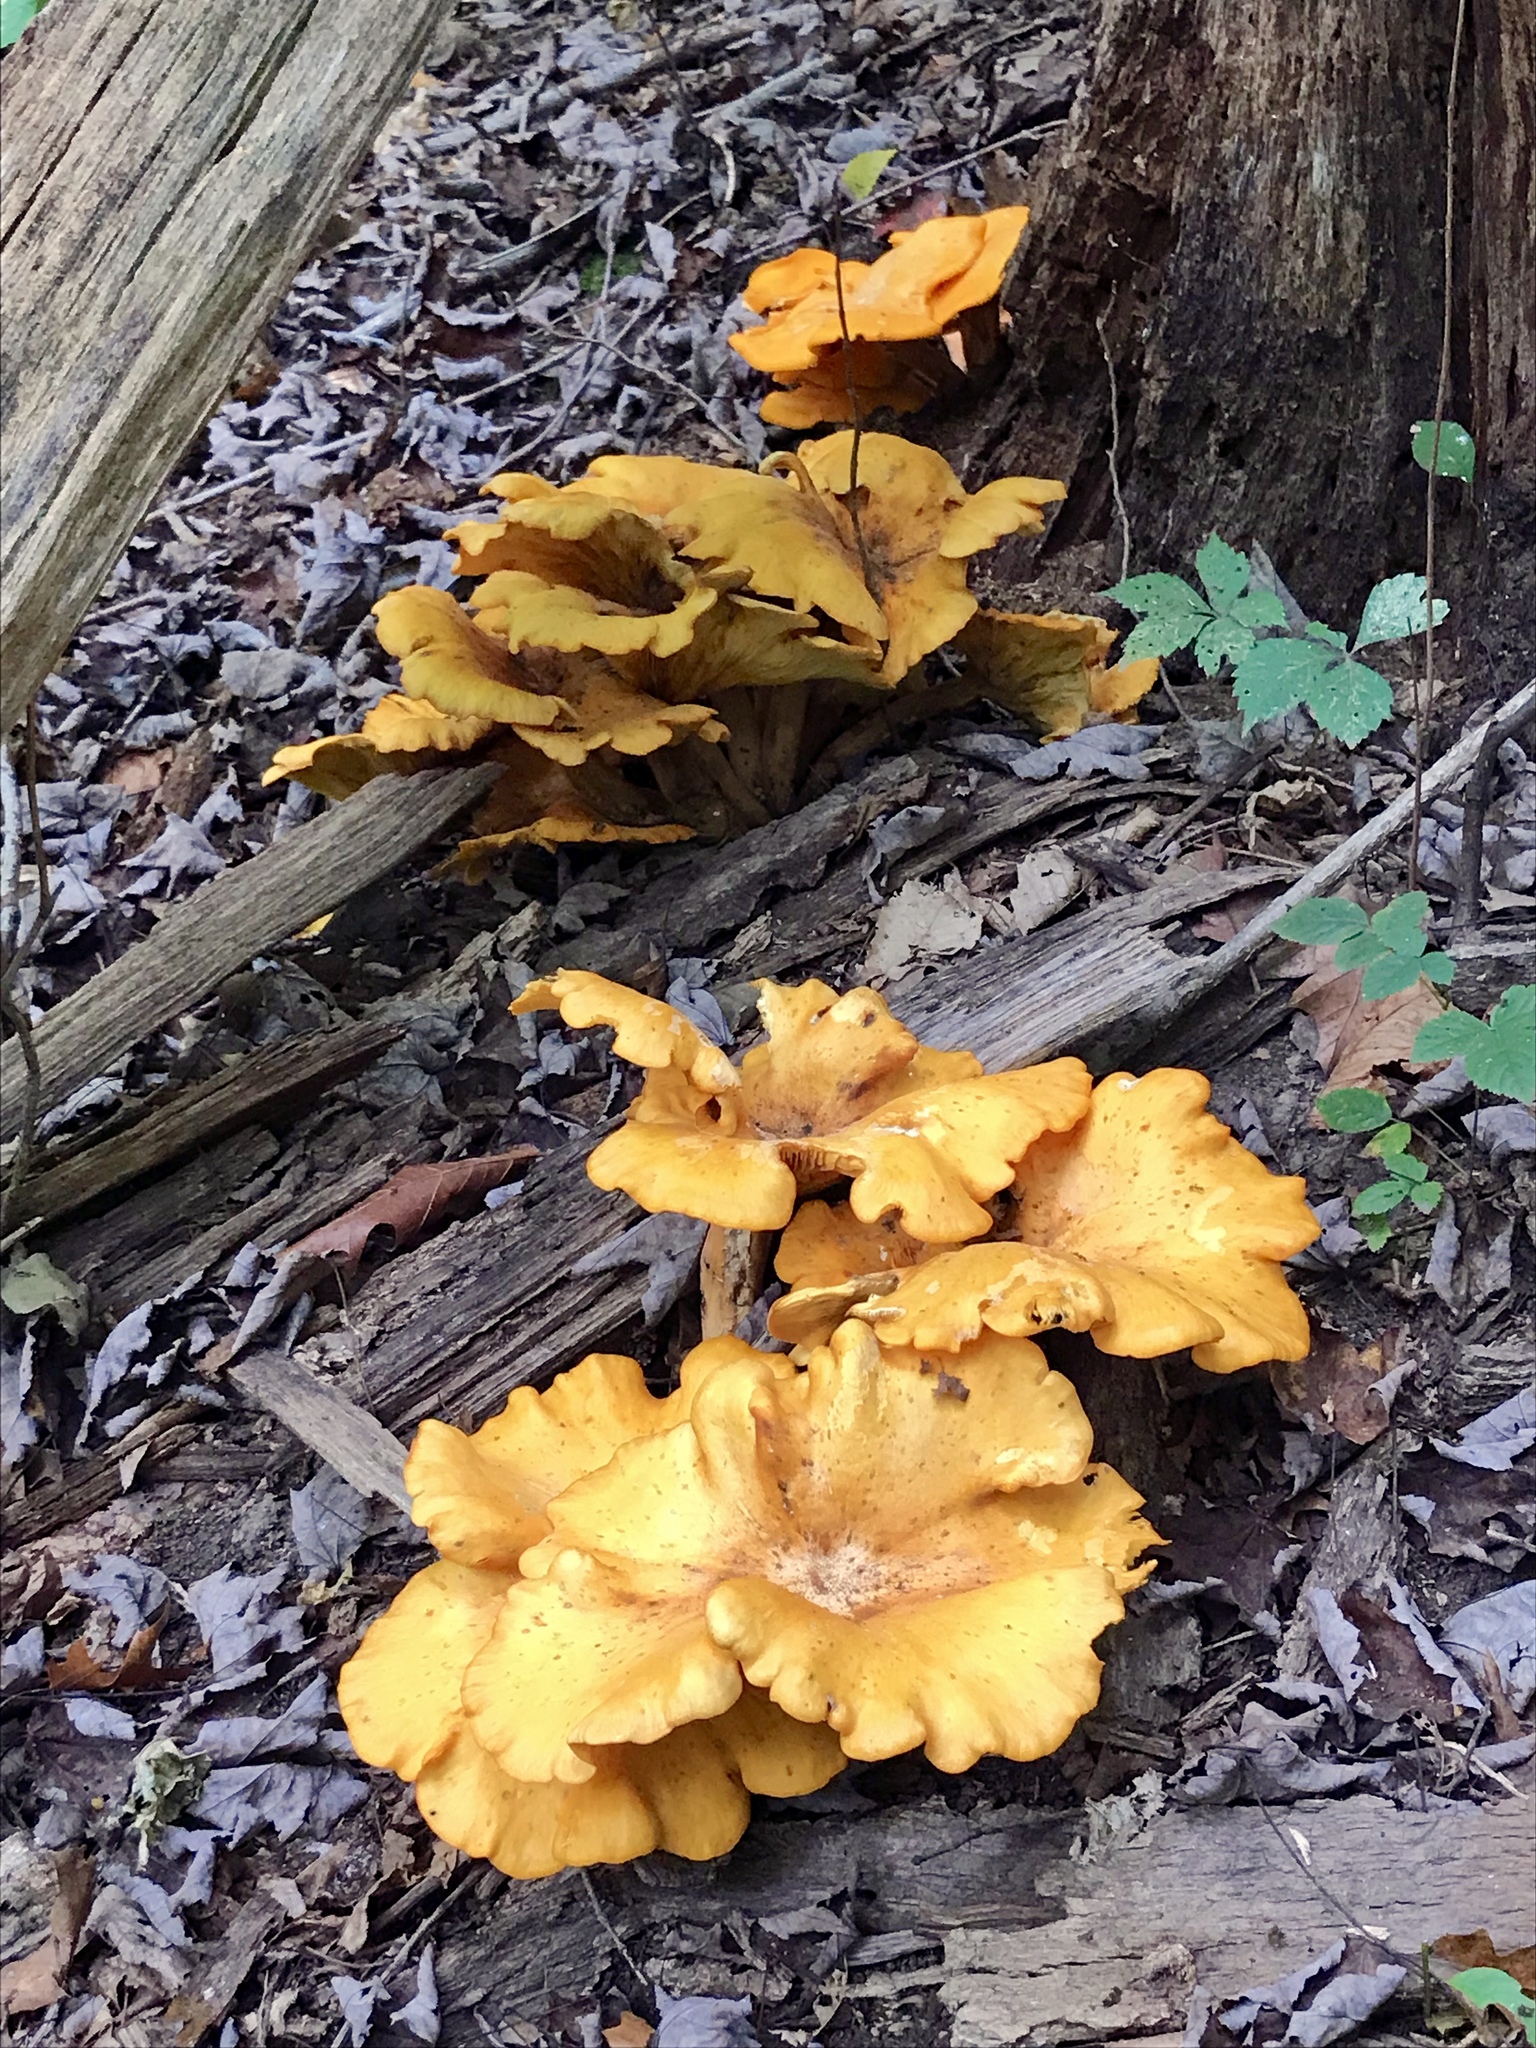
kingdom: Fungi
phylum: Basidiomycota
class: Agaricomycetes
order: Agaricales
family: Omphalotaceae
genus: Omphalotus
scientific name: Omphalotus illudens
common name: Jack o lantern
